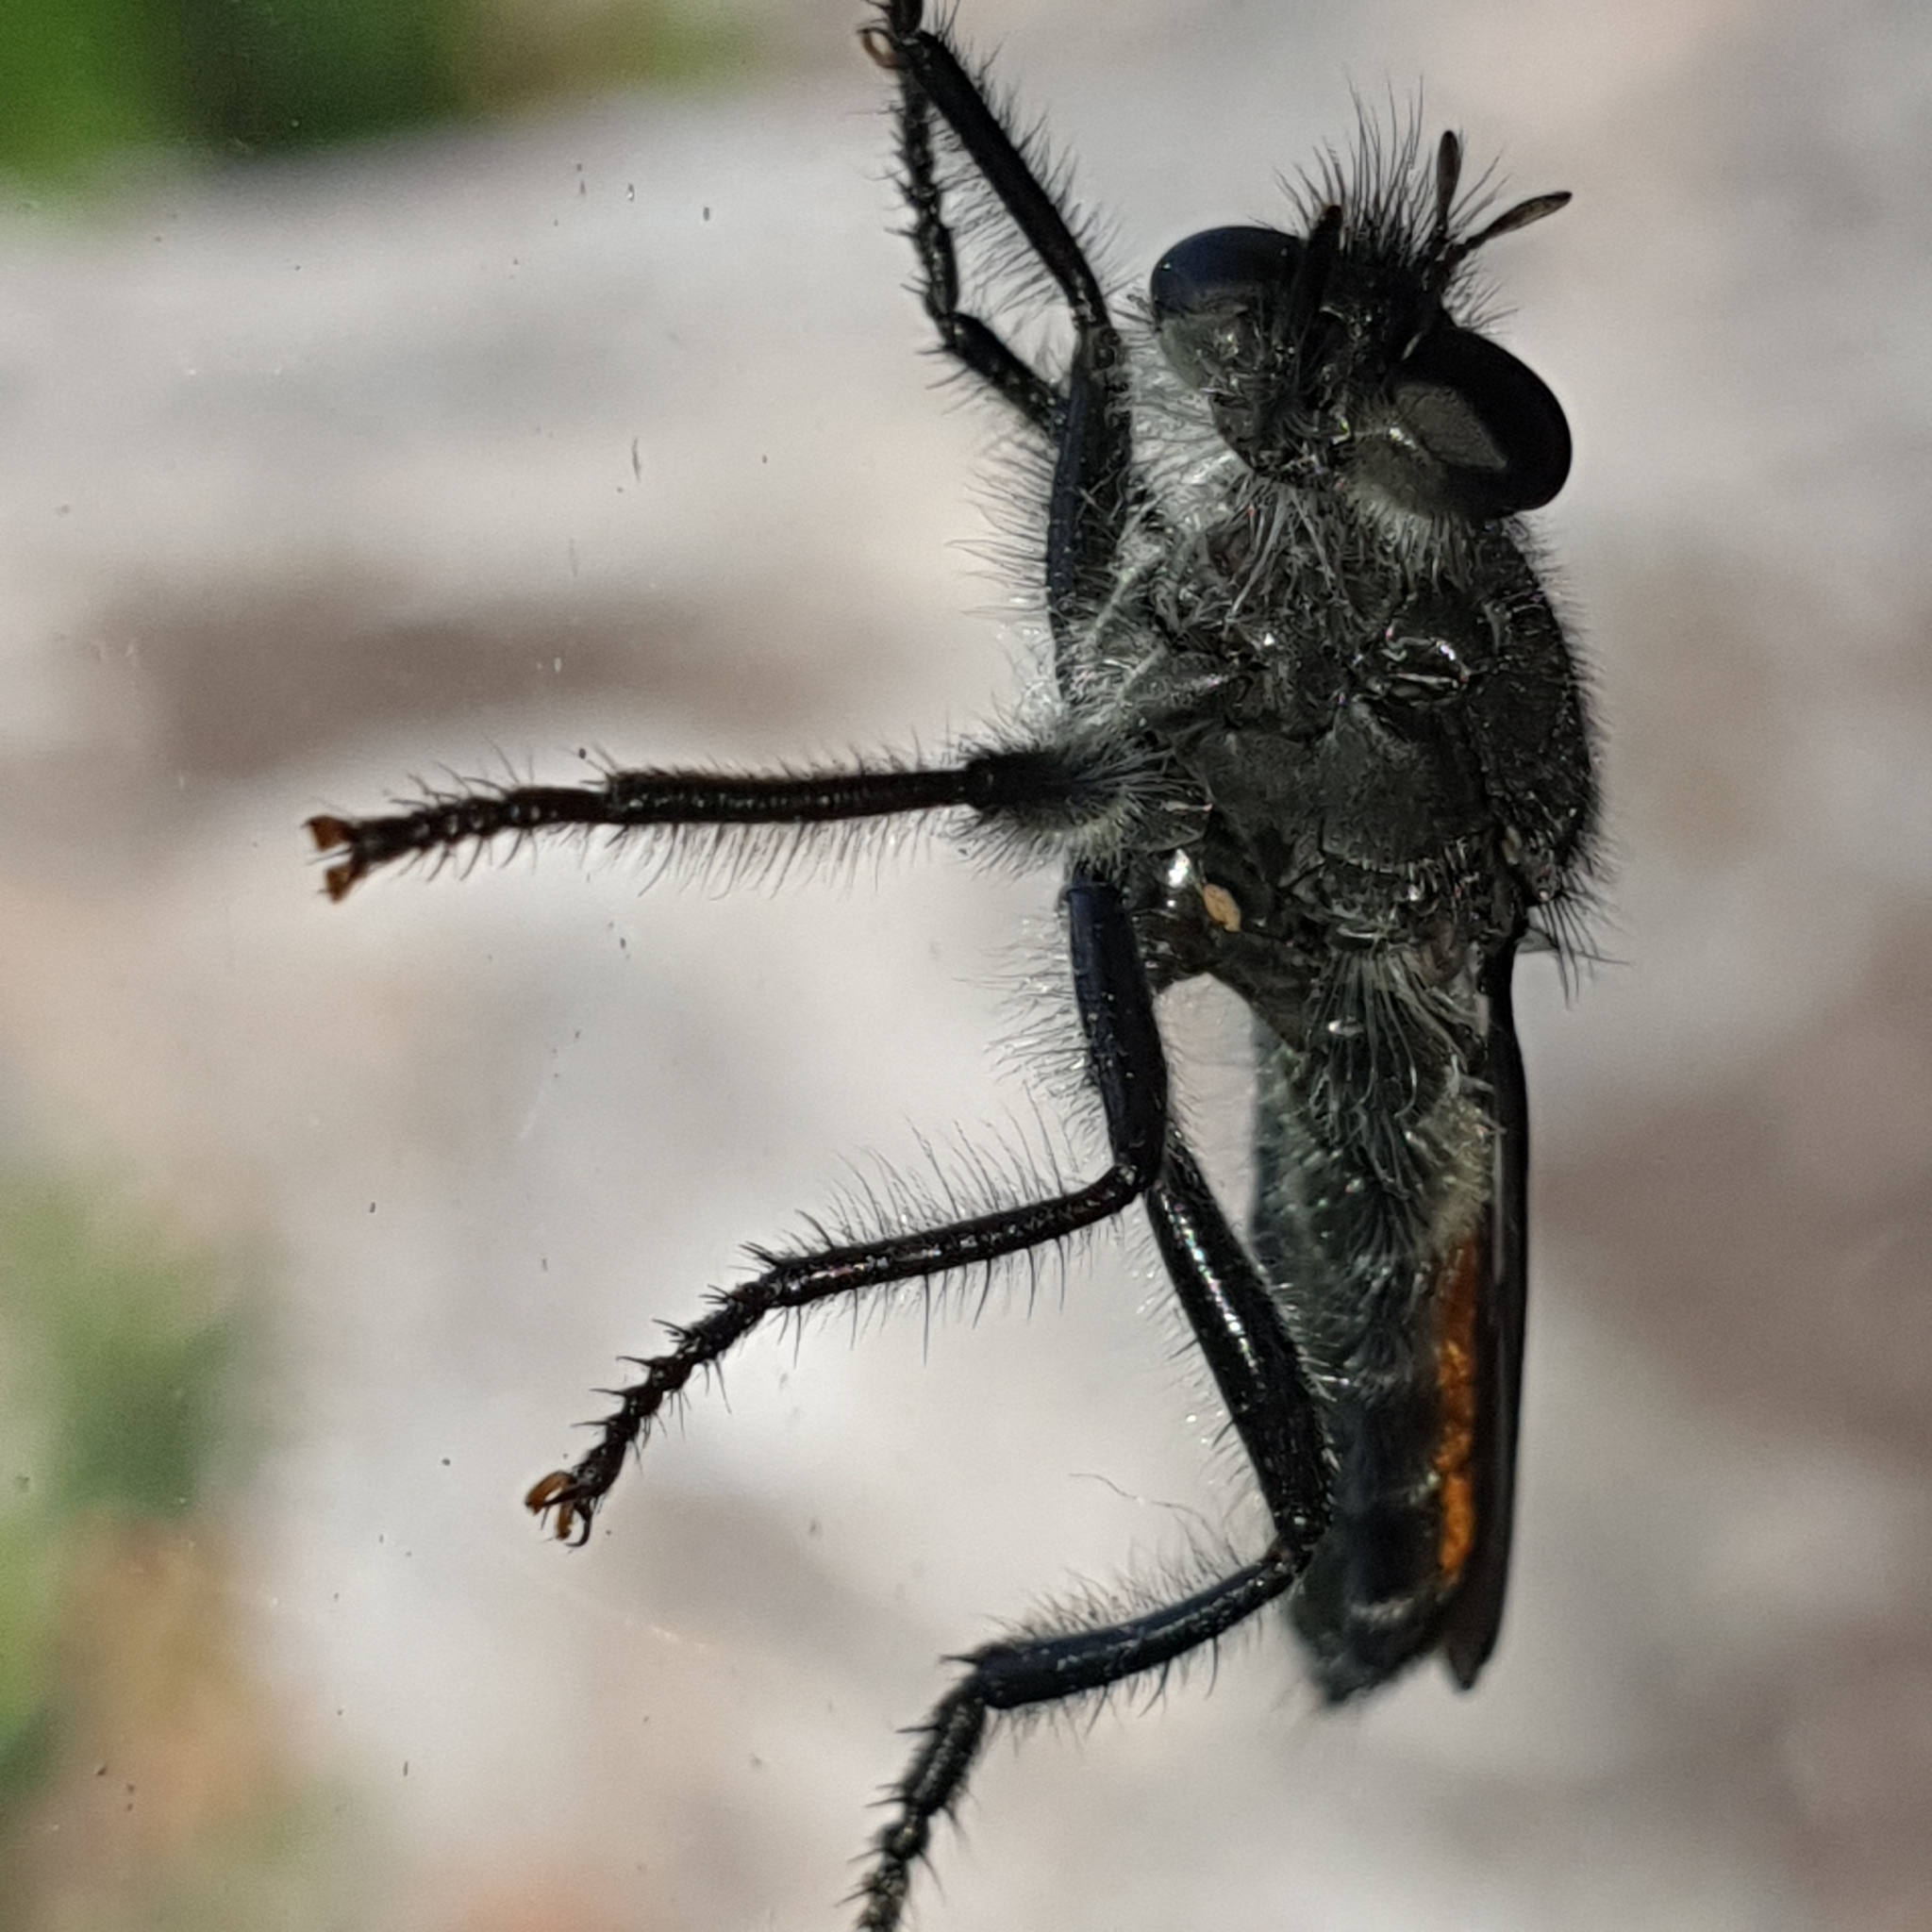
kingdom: Animalia
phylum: Arthropoda
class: Insecta
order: Diptera
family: Asilidae
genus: Laphria
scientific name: Laphria gilva
